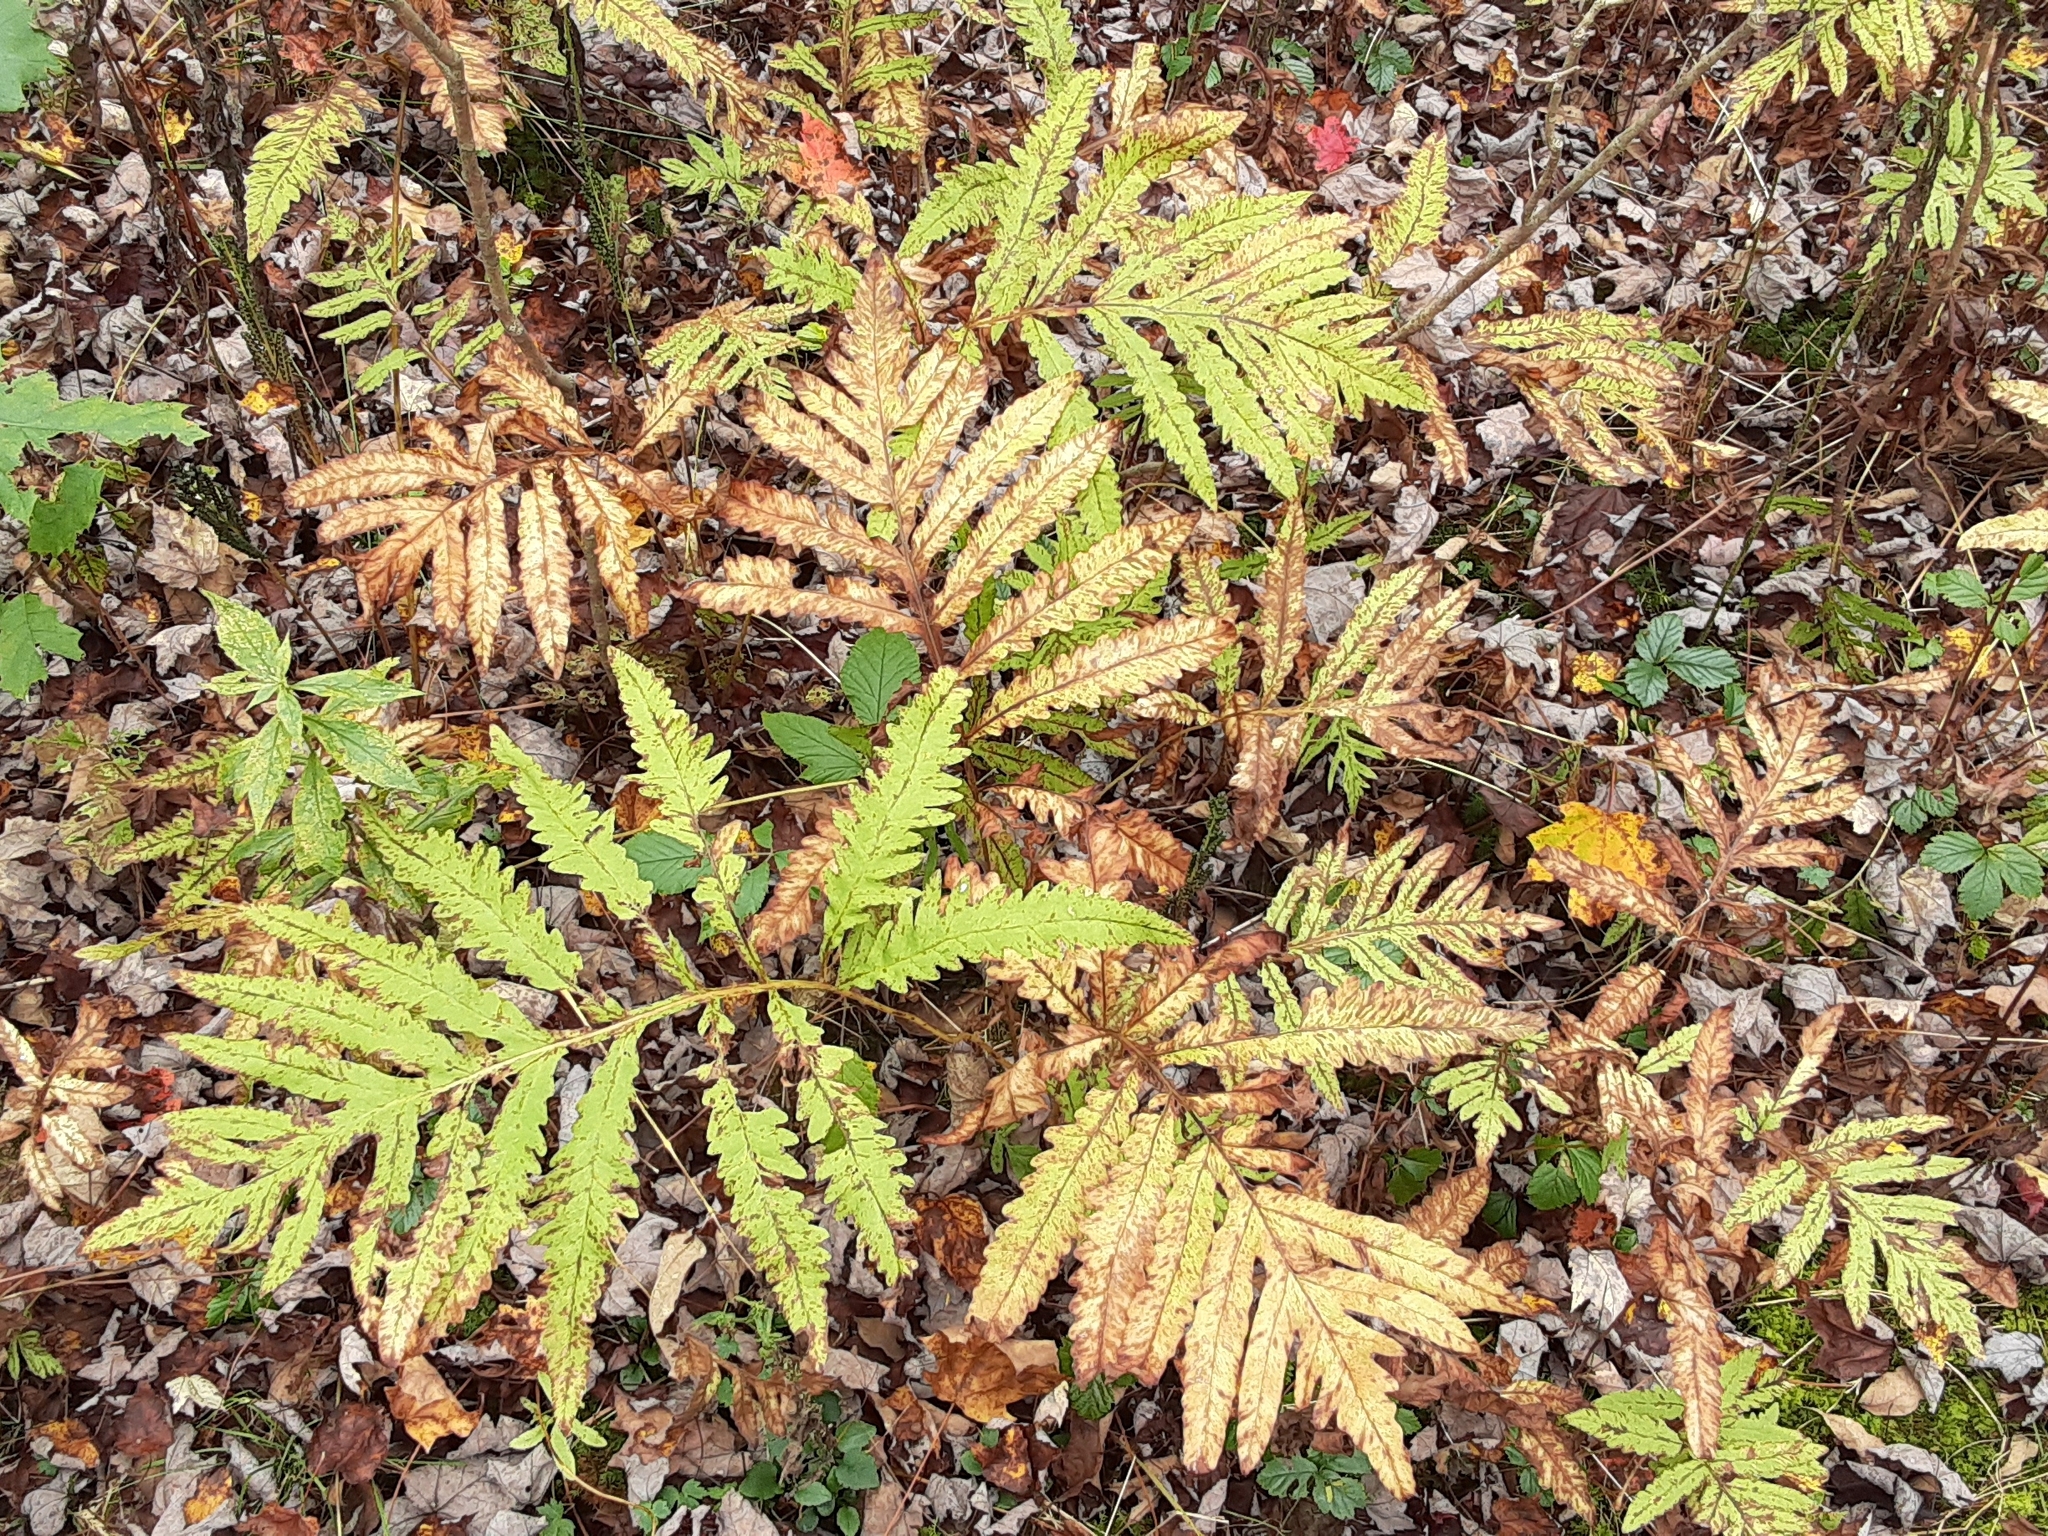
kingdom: Plantae
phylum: Tracheophyta
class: Polypodiopsida
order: Polypodiales
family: Onocleaceae
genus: Onoclea
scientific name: Onoclea sensibilis
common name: Sensitive fern
